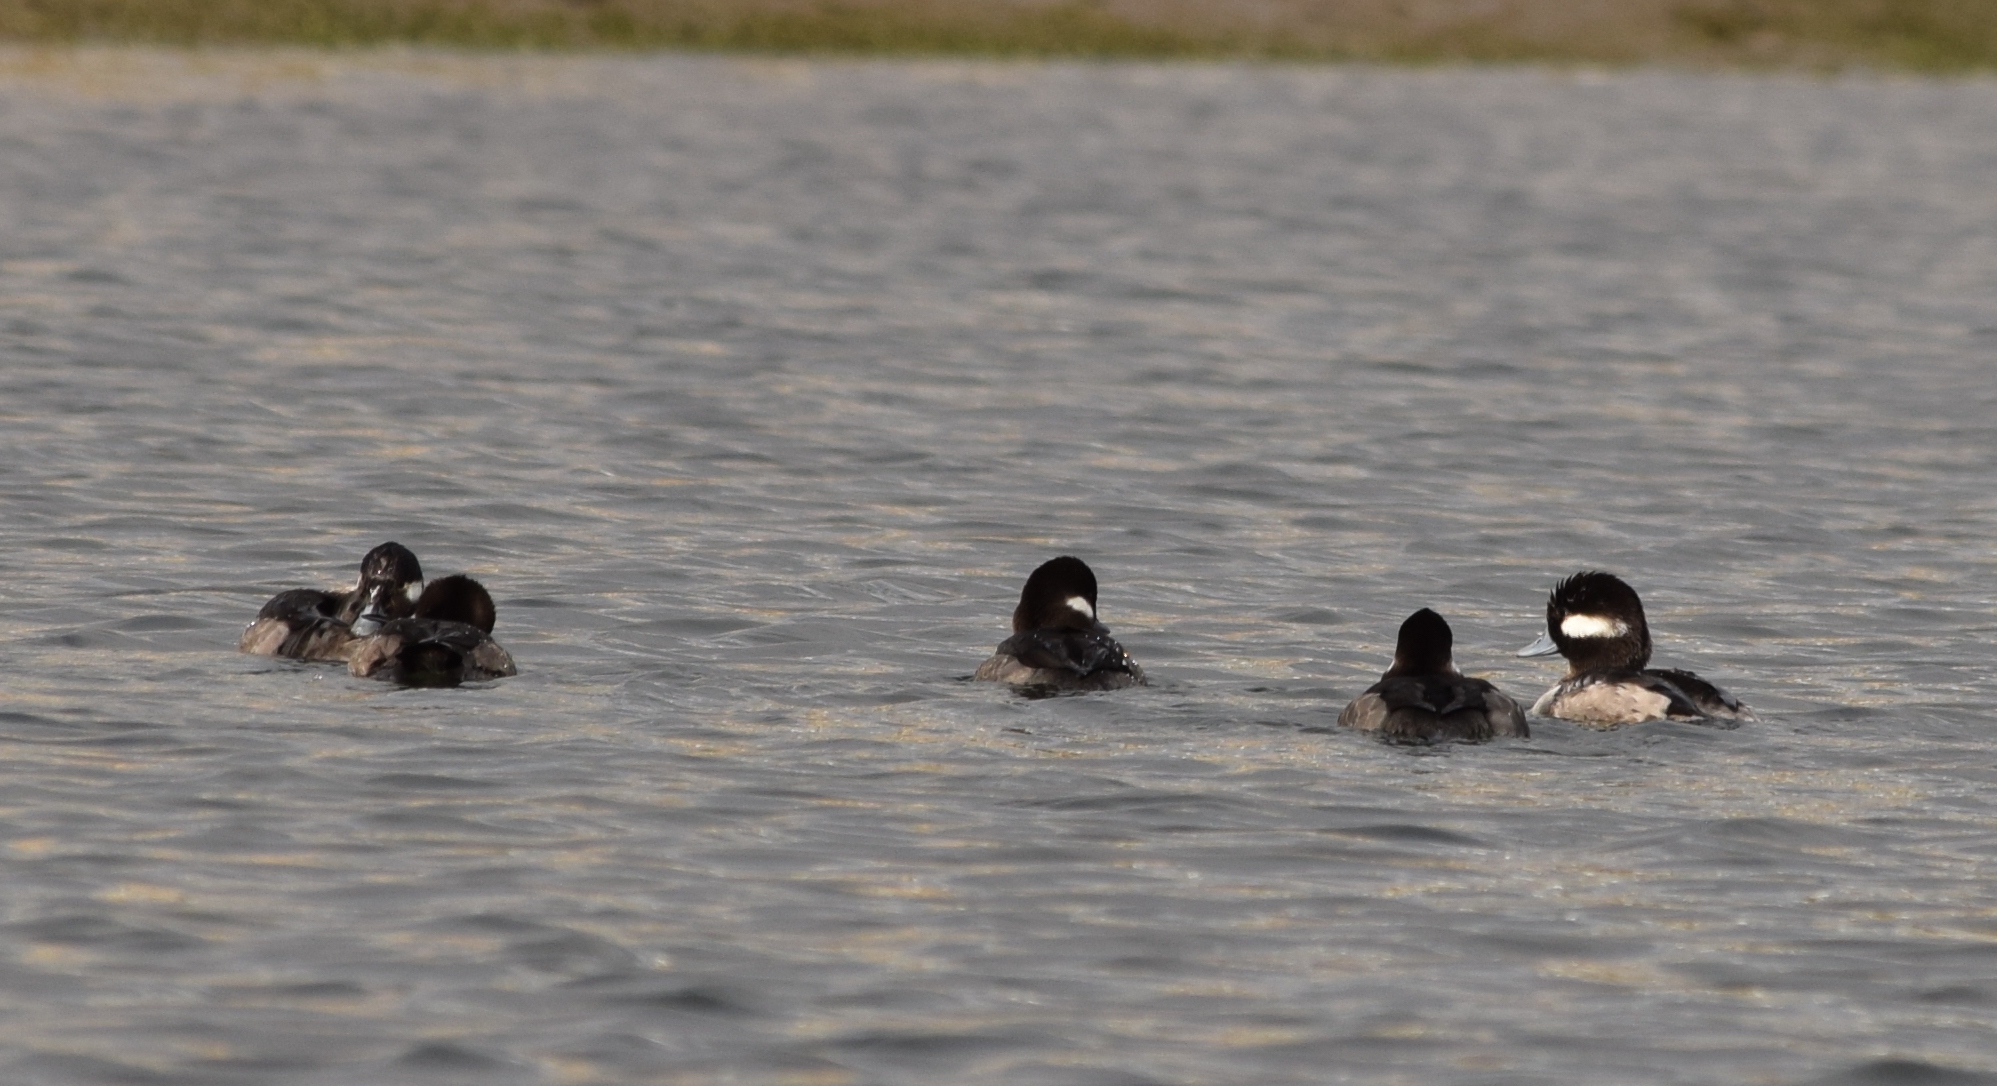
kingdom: Animalia
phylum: Chordata
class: Aves
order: Anseriformes
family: Anatidae
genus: Bucephala
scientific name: Bucephala albeola
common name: Bufflehead
